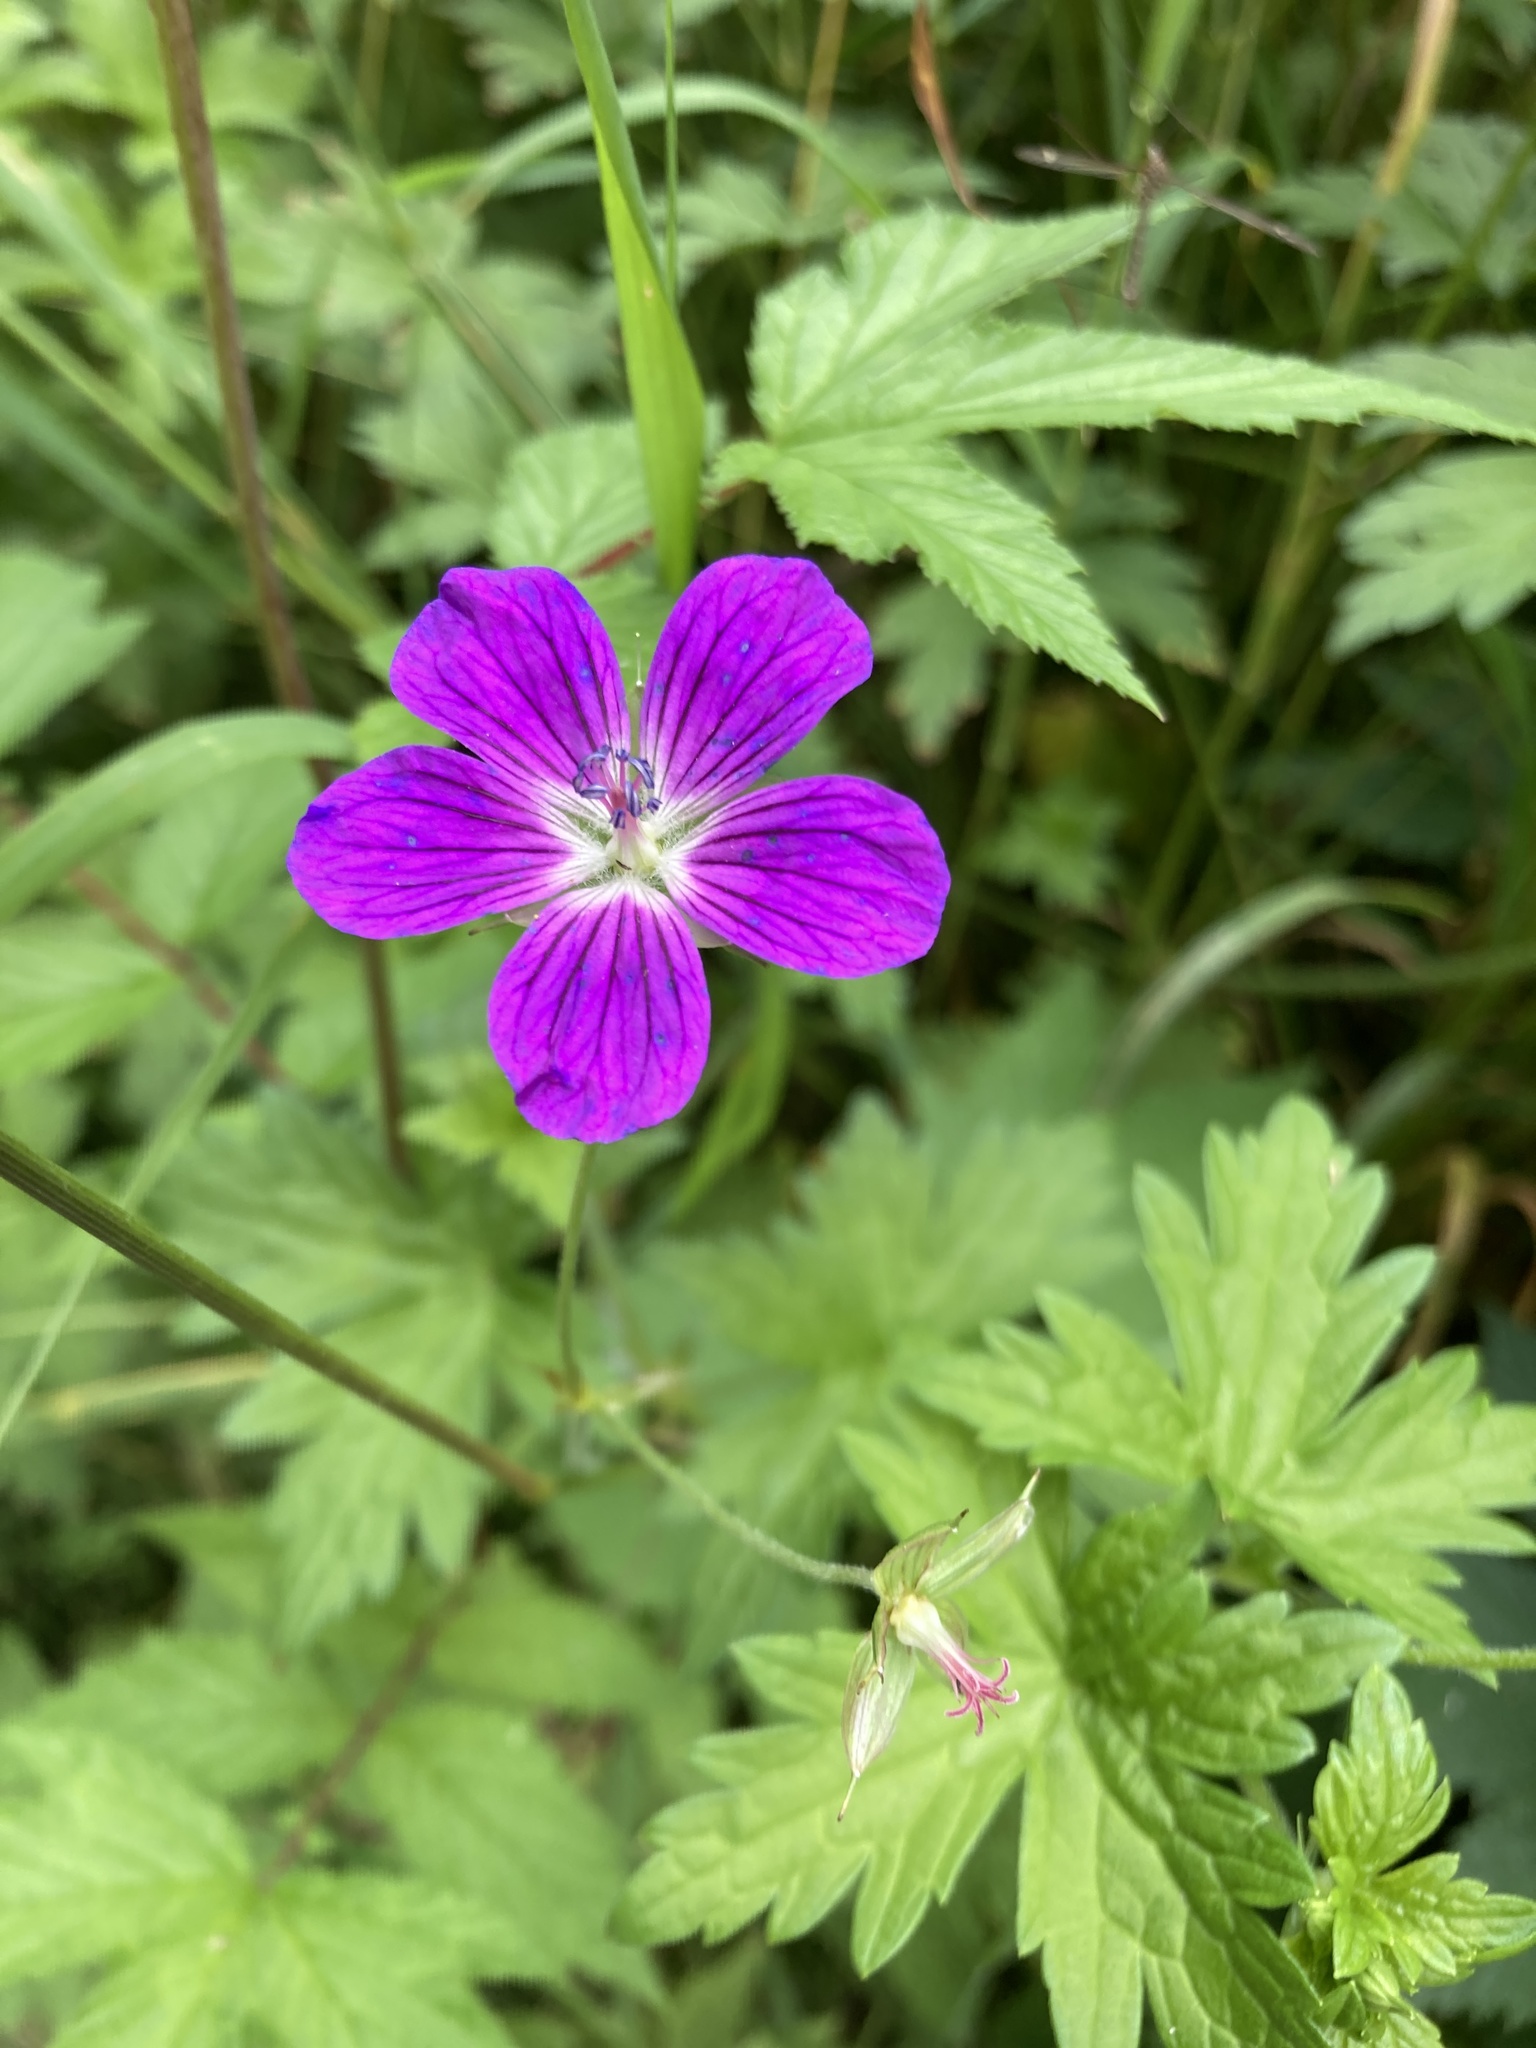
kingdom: Plantae
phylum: Tracheophyta
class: Magnoliopsida
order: Geraniales
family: Geraniaceae
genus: Geranium
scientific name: Geranium palustre
